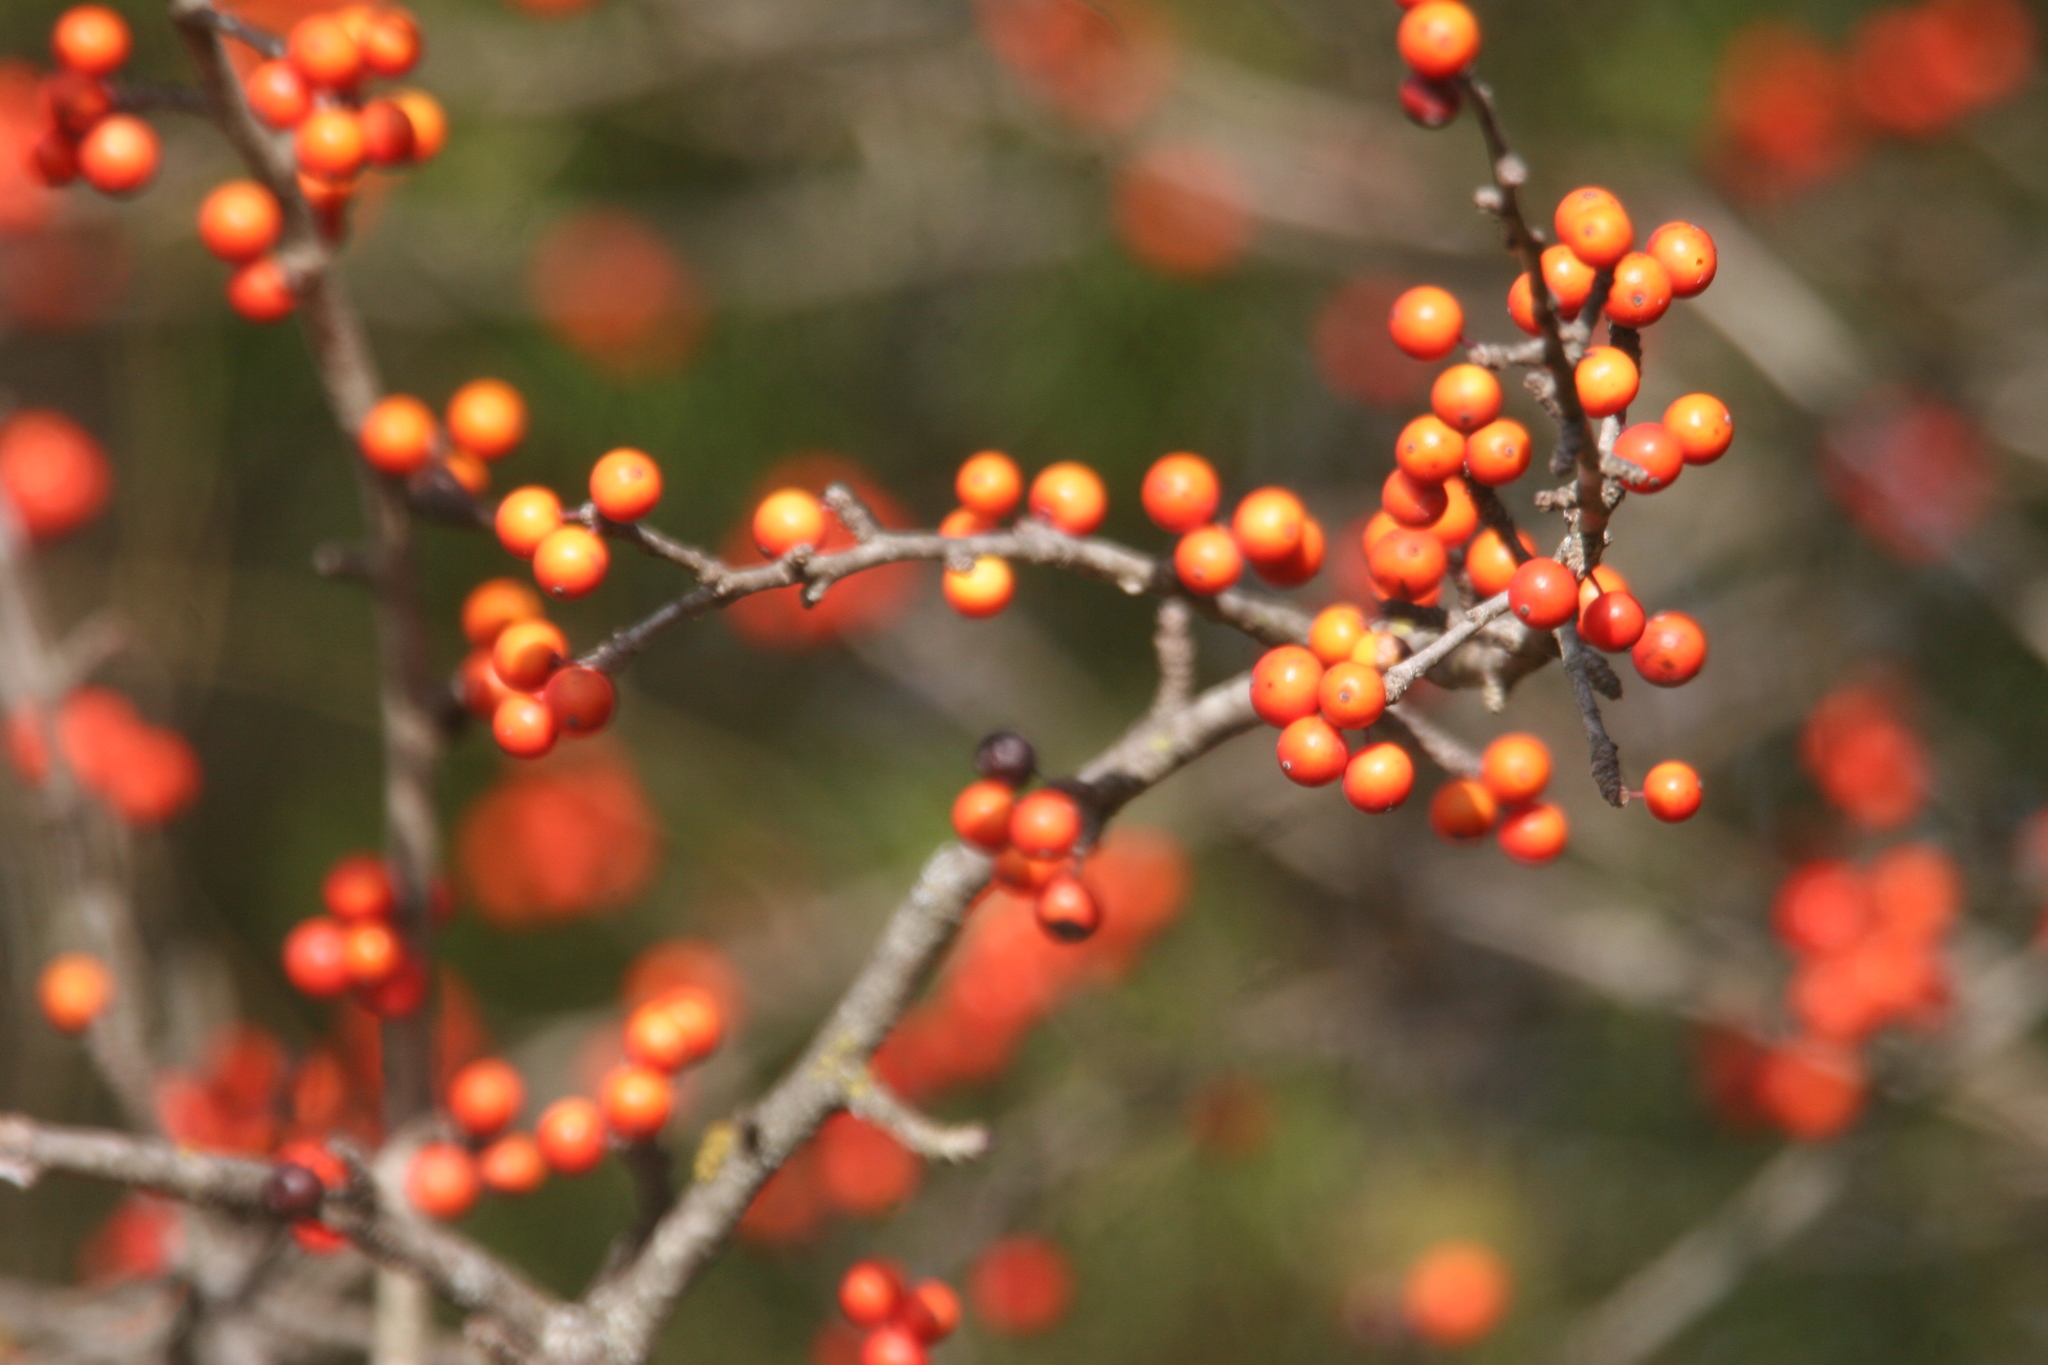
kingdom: Plantae
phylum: Tracheophyta
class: Magnoliopsida
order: Aquifoliales
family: Aquifoliaceae
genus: Ilex
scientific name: Ilex decidua
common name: Possum-haw
